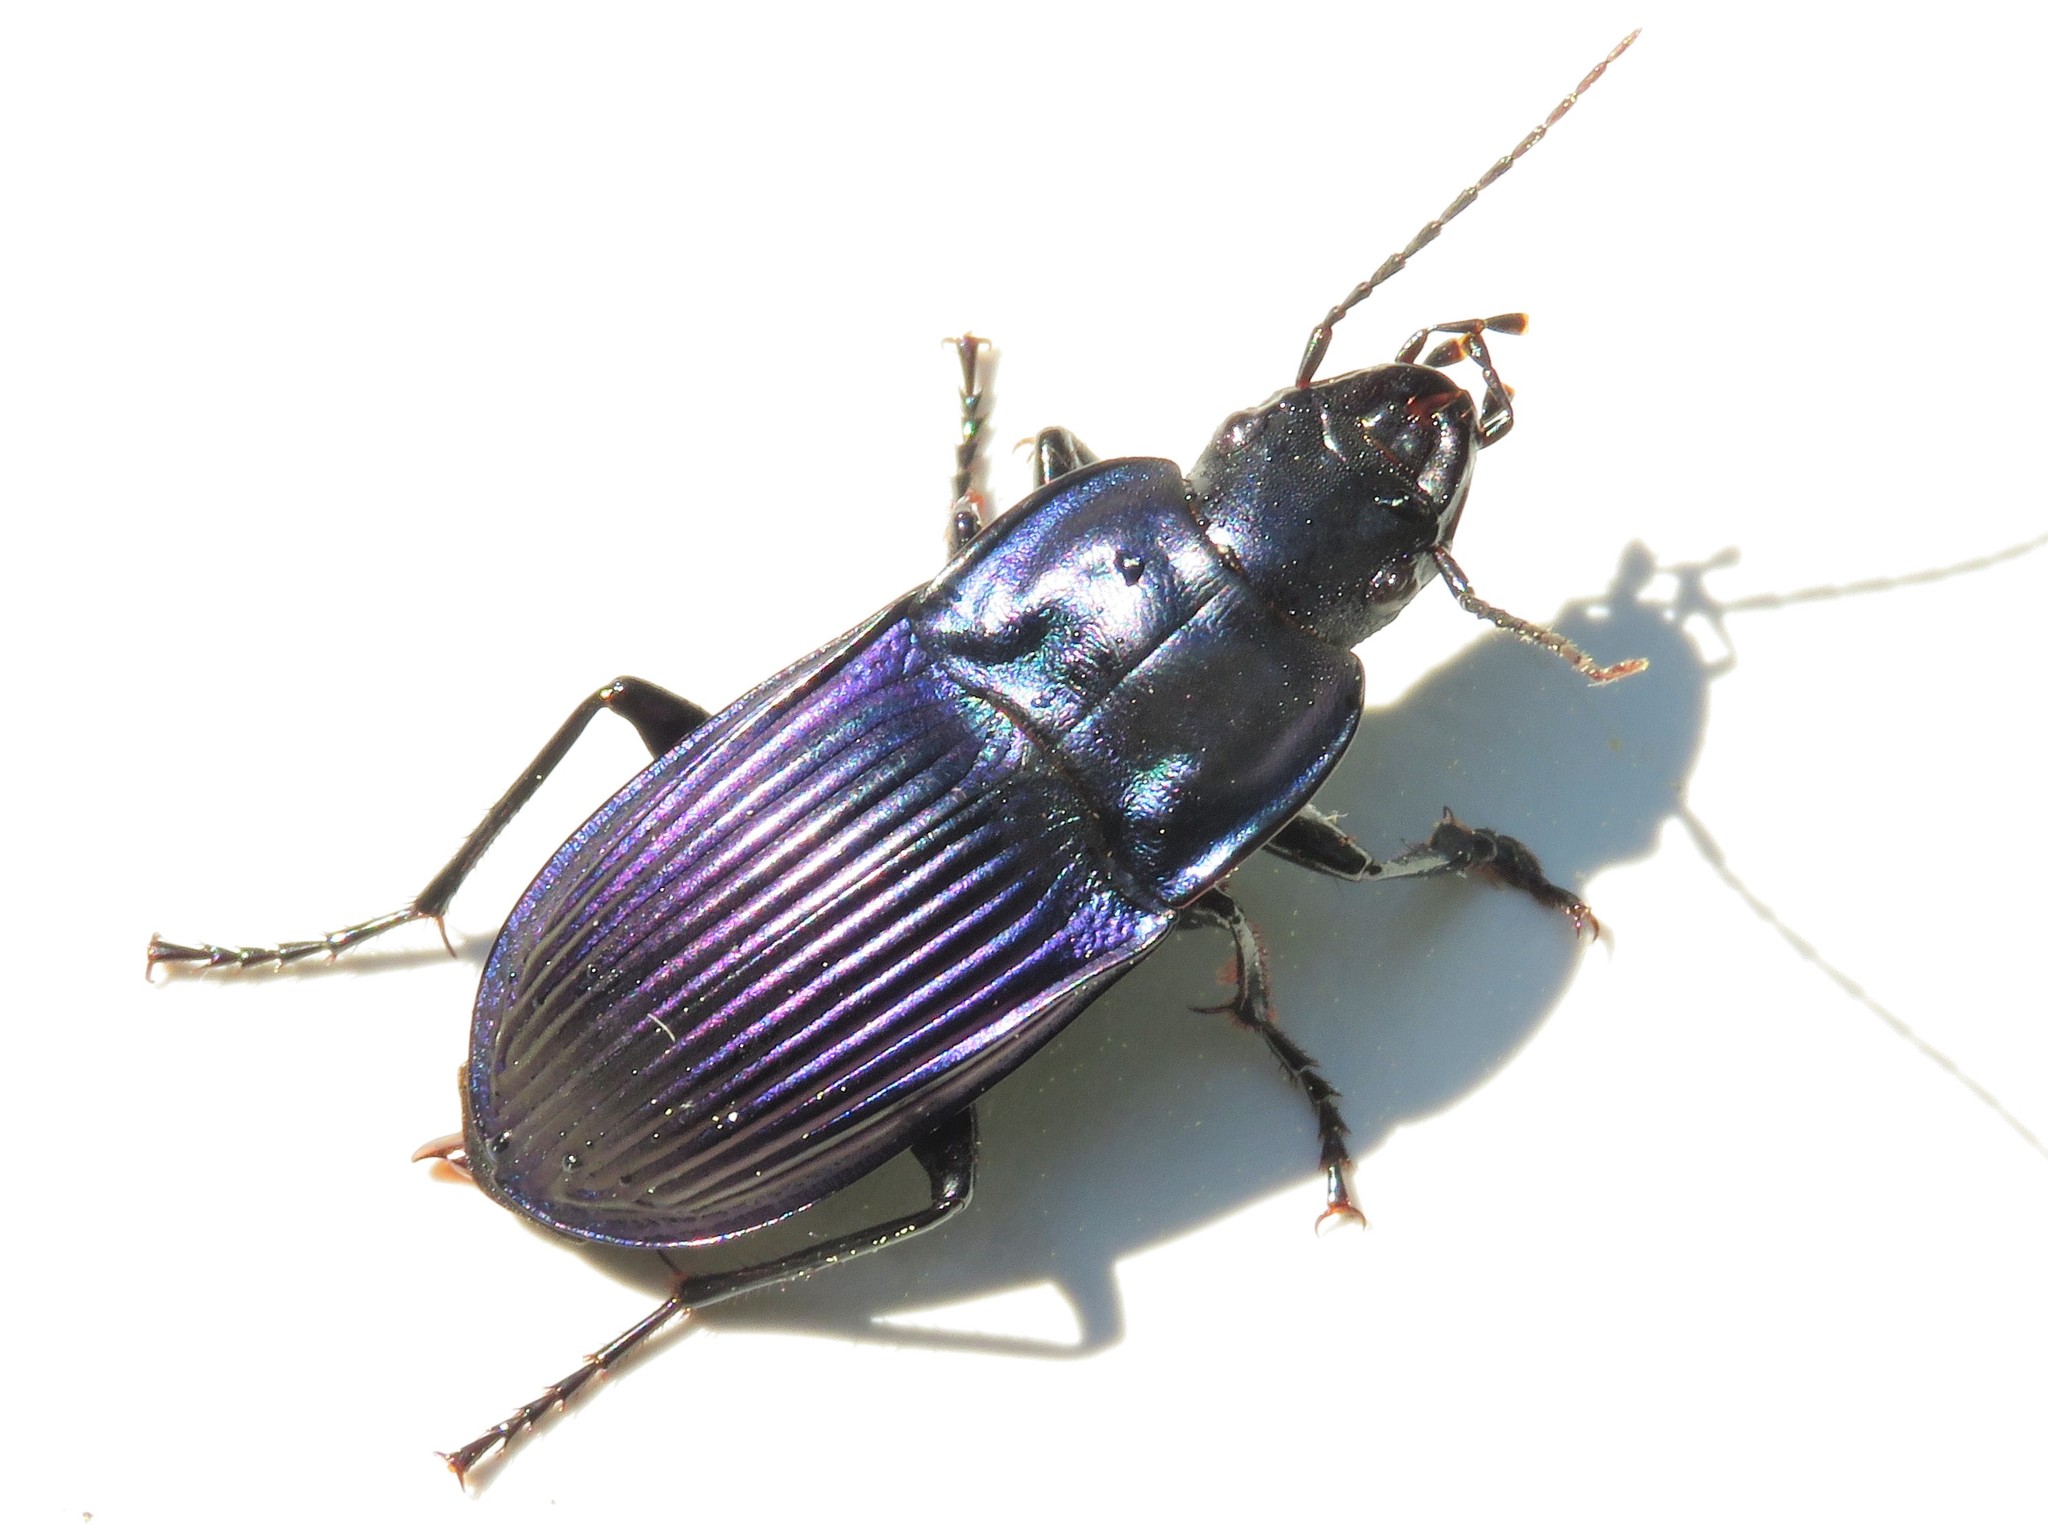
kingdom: Animalia
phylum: Arthropoda
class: Insecta
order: Coleoptera
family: Carabidae
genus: Dicaelus
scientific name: Dicaelus purpuratus
